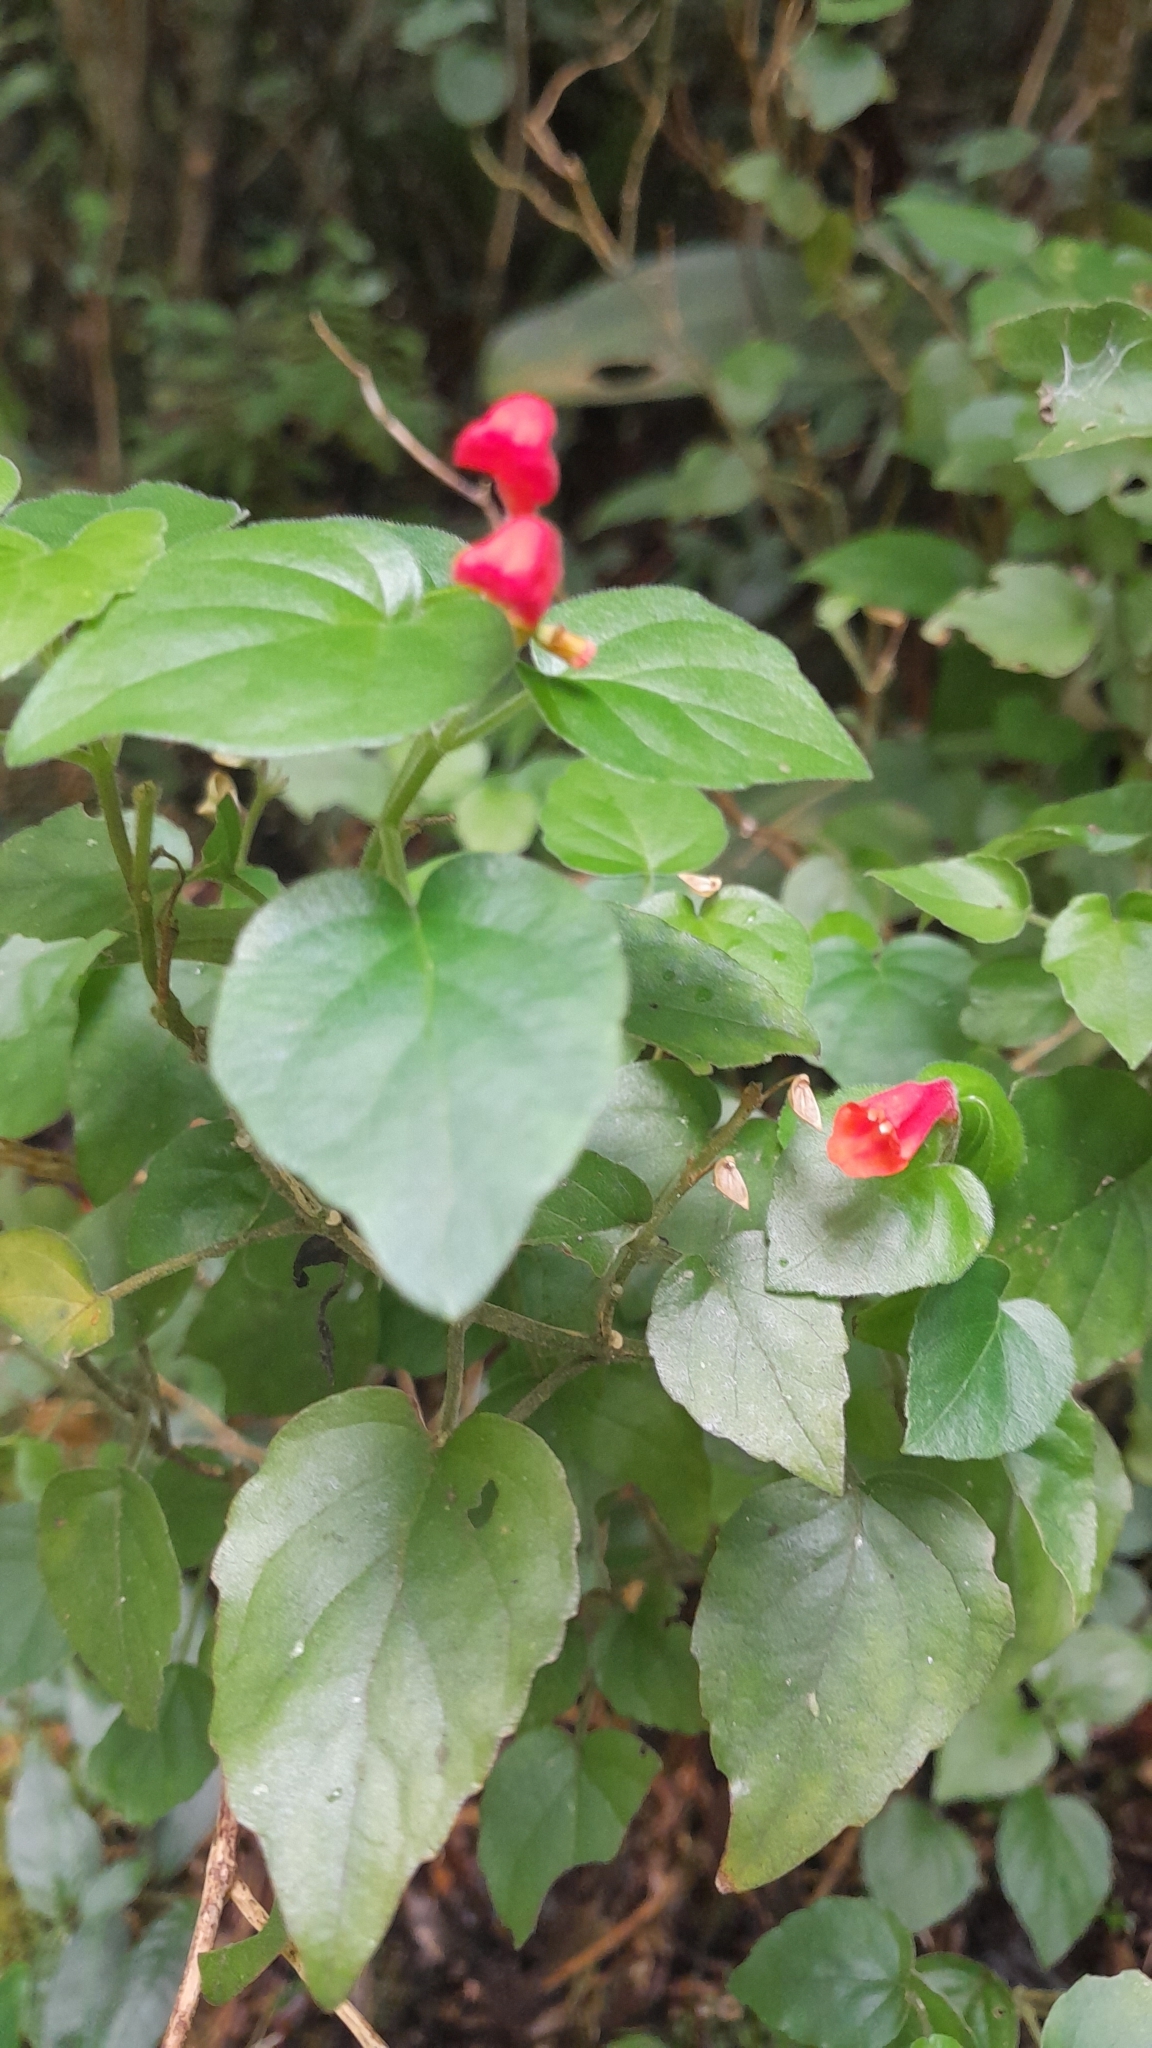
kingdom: Plantae
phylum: Tracheophyta
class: Magnoliopsida
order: Lamiales
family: Plantaginaceae
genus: Russelia
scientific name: Russelia sarmentosa
